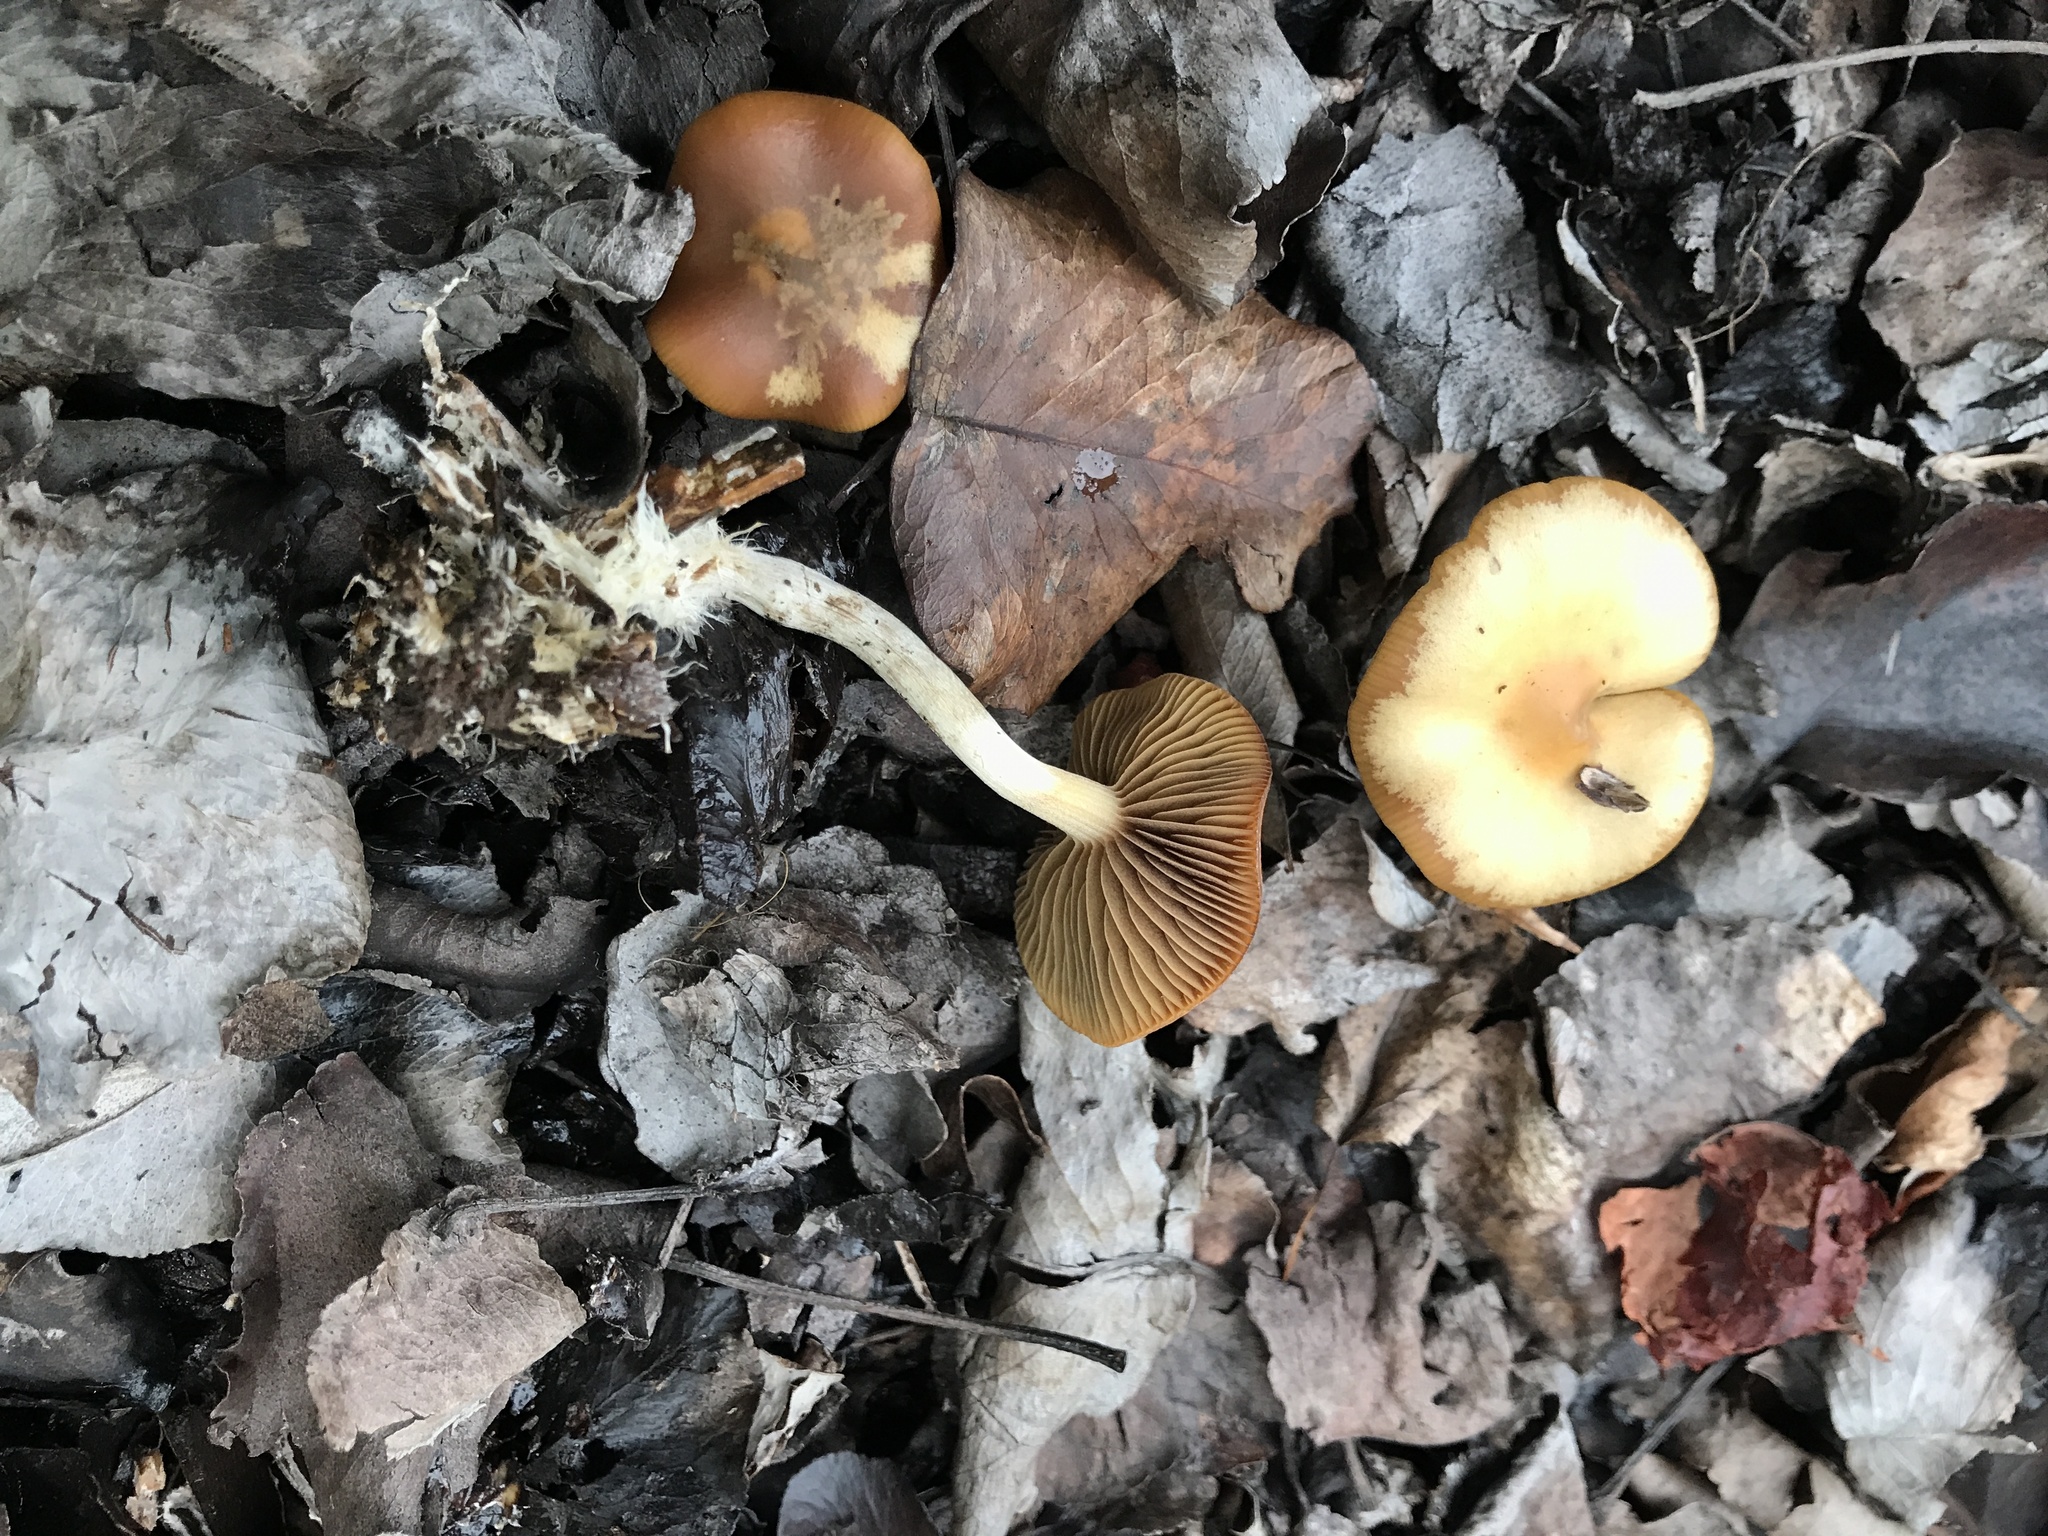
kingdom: Fungi
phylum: Basidiomycota
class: Agaricomycetes
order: Agaricales
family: Hymenogastraceae
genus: Psilocybe
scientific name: Psilocybe cyanescens
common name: Blueleg brownie
